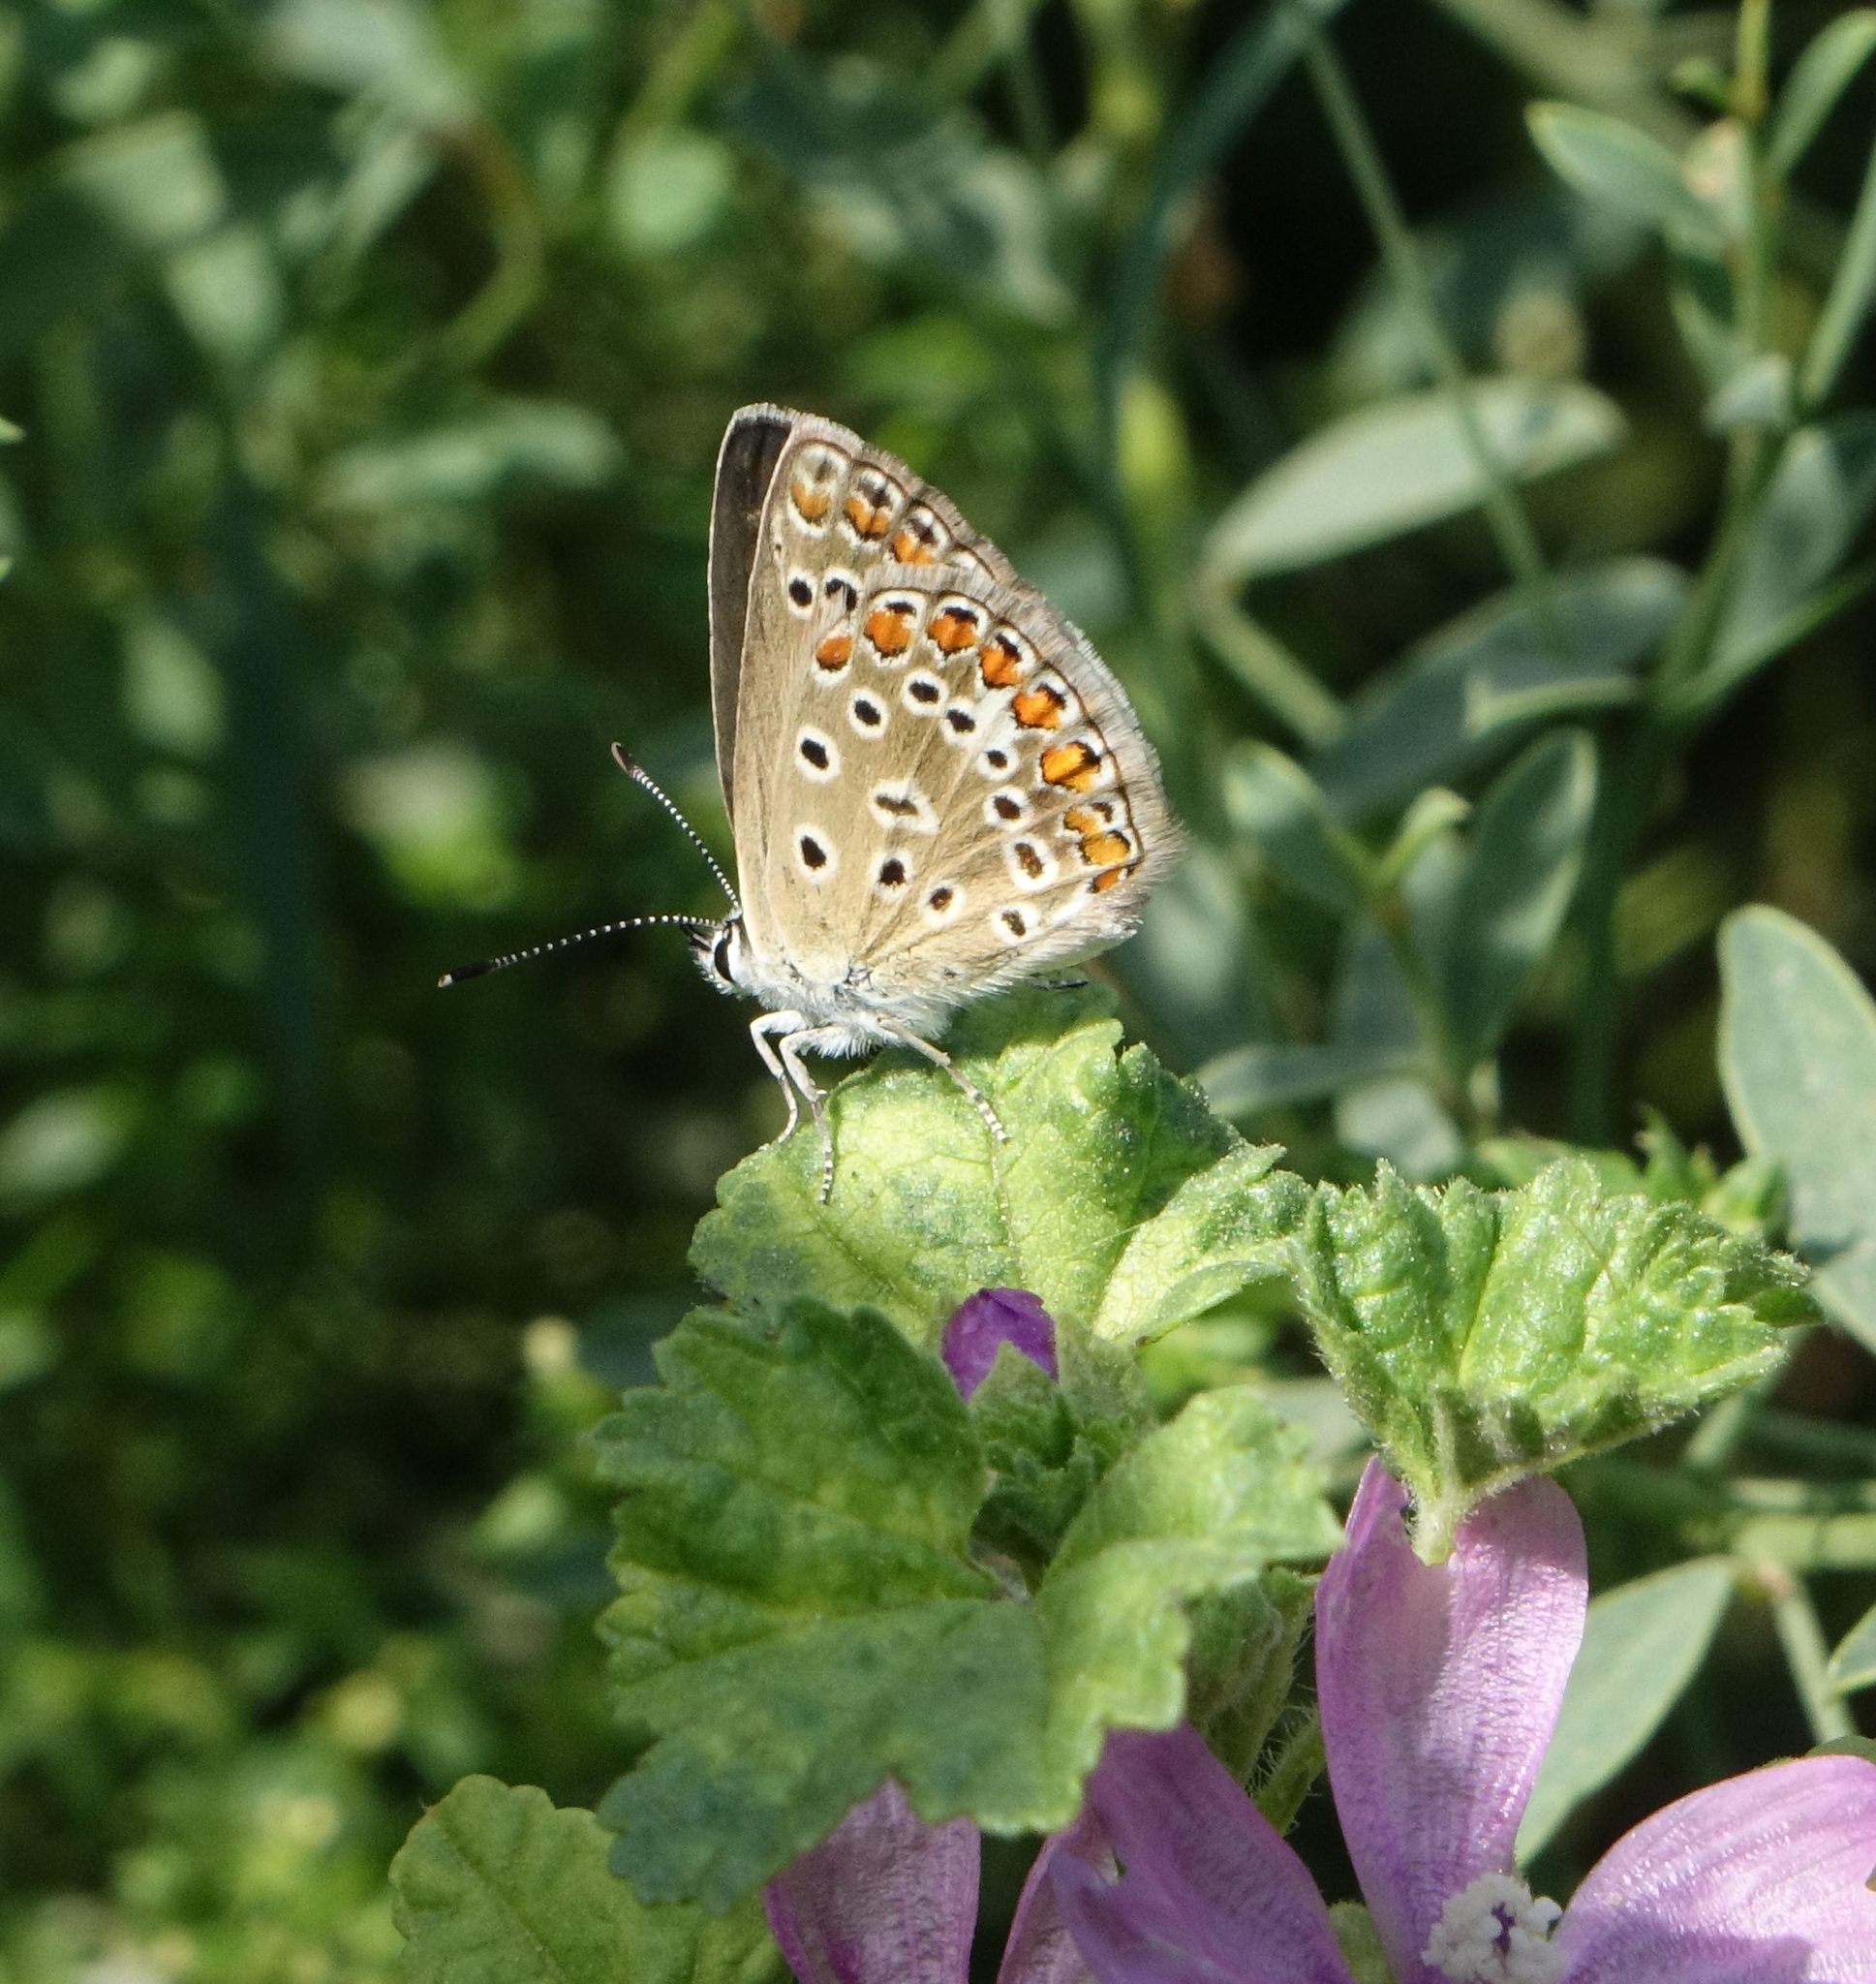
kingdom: Animalia
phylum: Arthropoda
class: Insecta
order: Lepidoptera
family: Lycaenidae
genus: Polyommatus
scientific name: Polyommatus icarus
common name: Common blue
